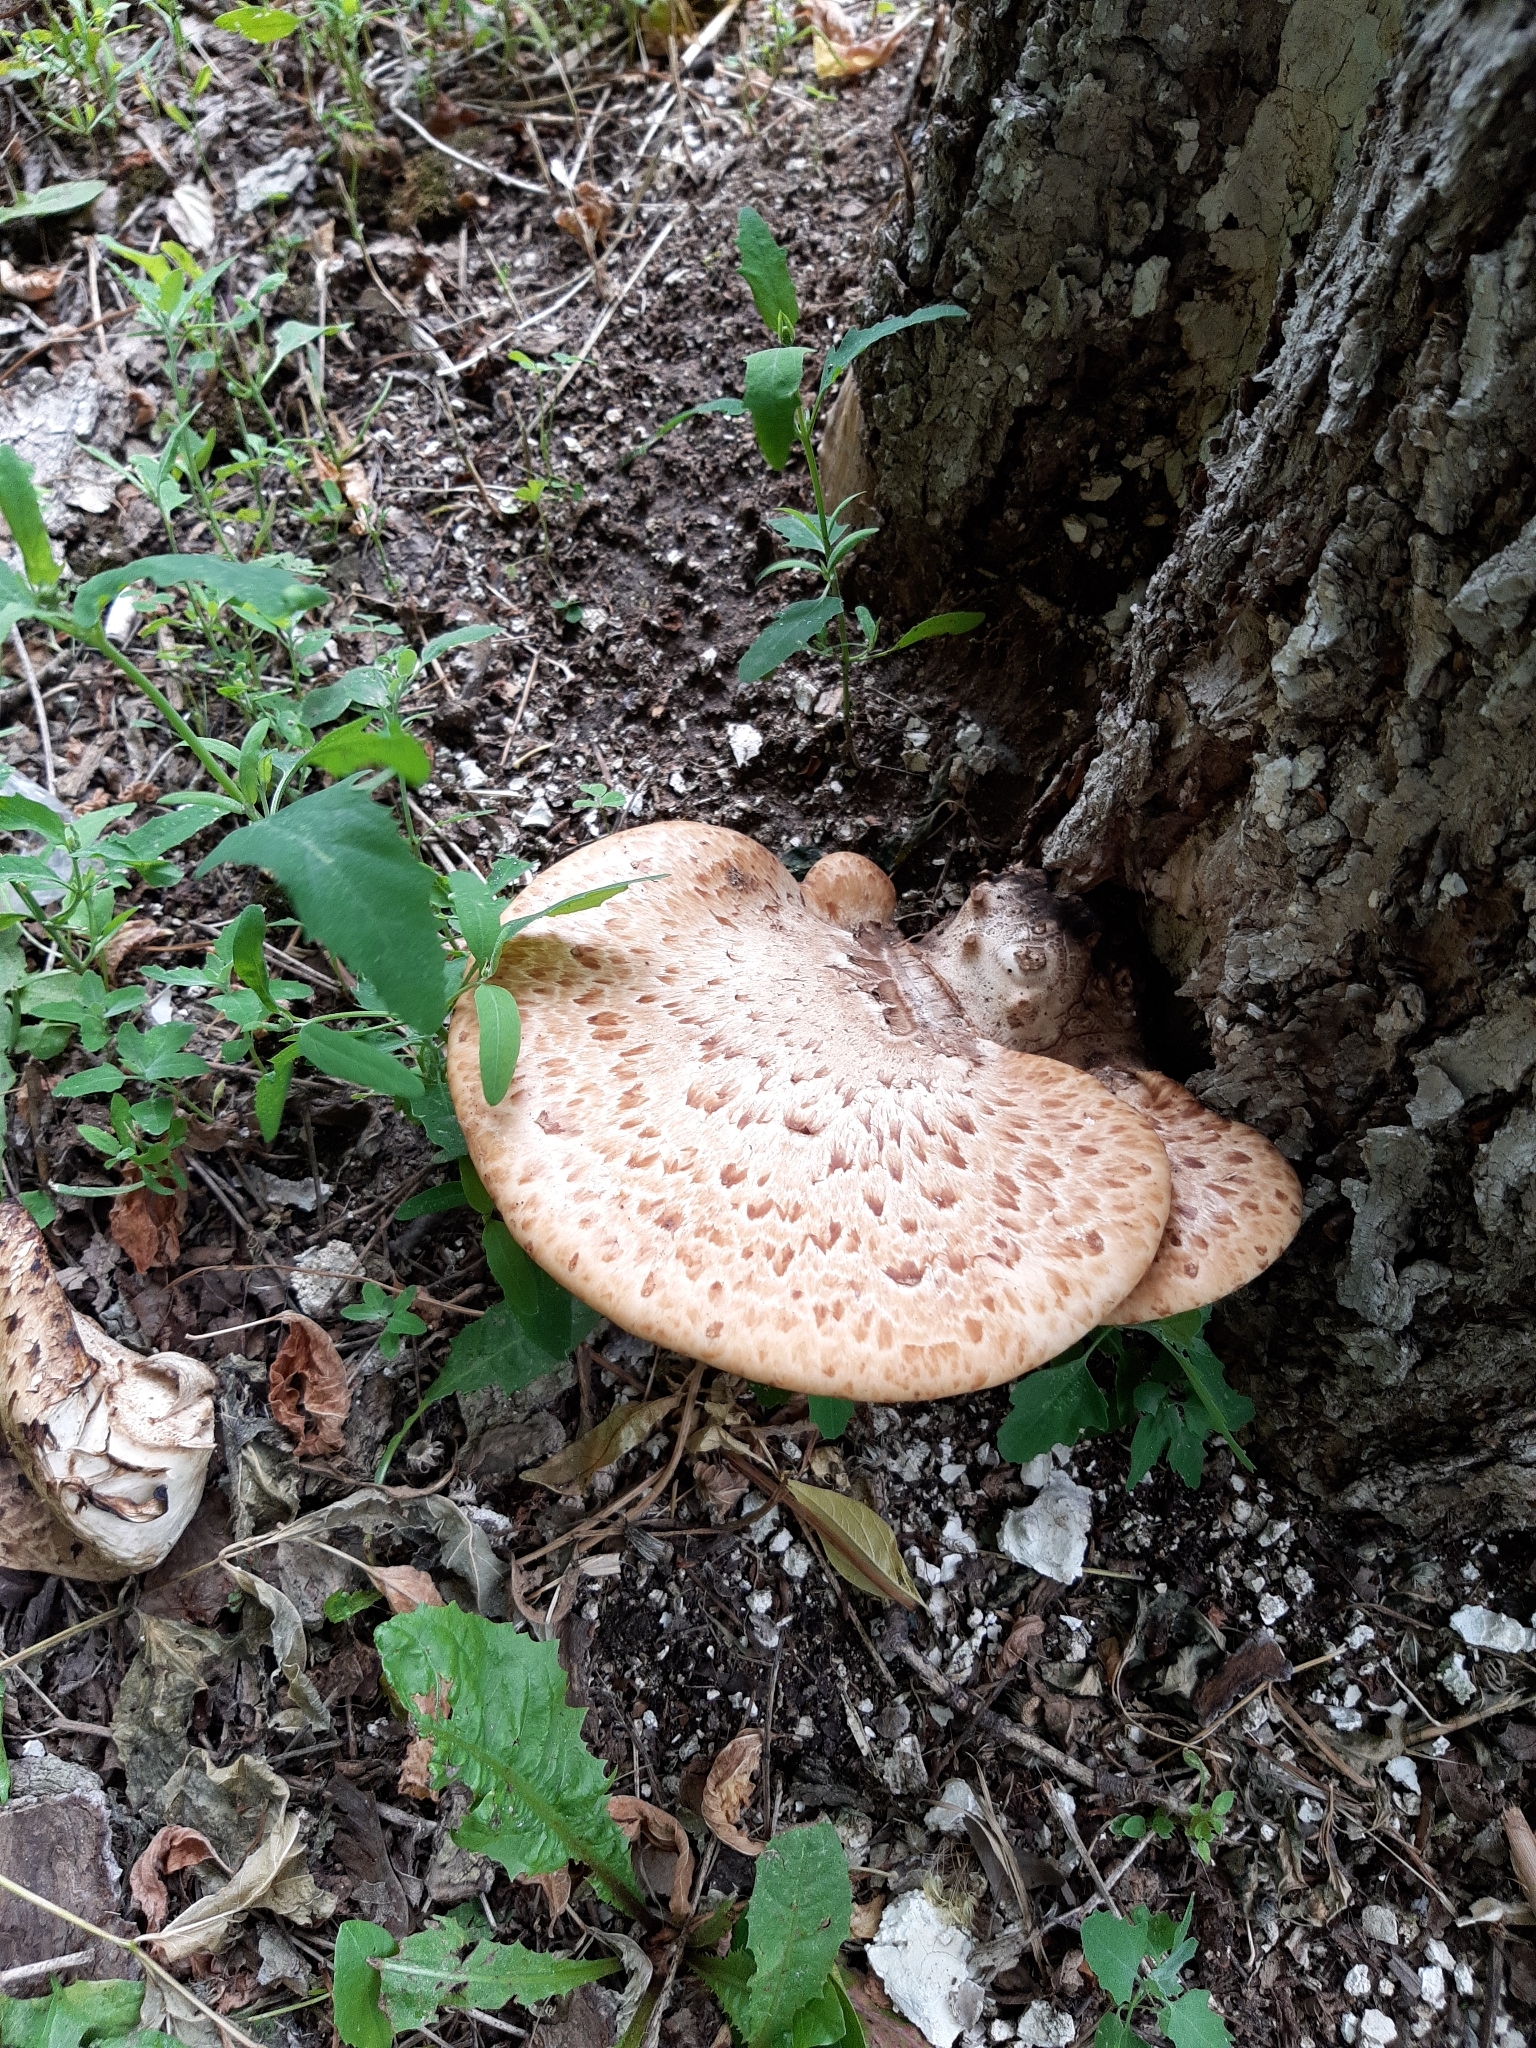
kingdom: Fungi
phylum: Basidiomycota
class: Agaricomycetes
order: Polyporales
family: Polyporaceae
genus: Cerioporus
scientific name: Cerioporus squamosus
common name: Dryad's saddle
